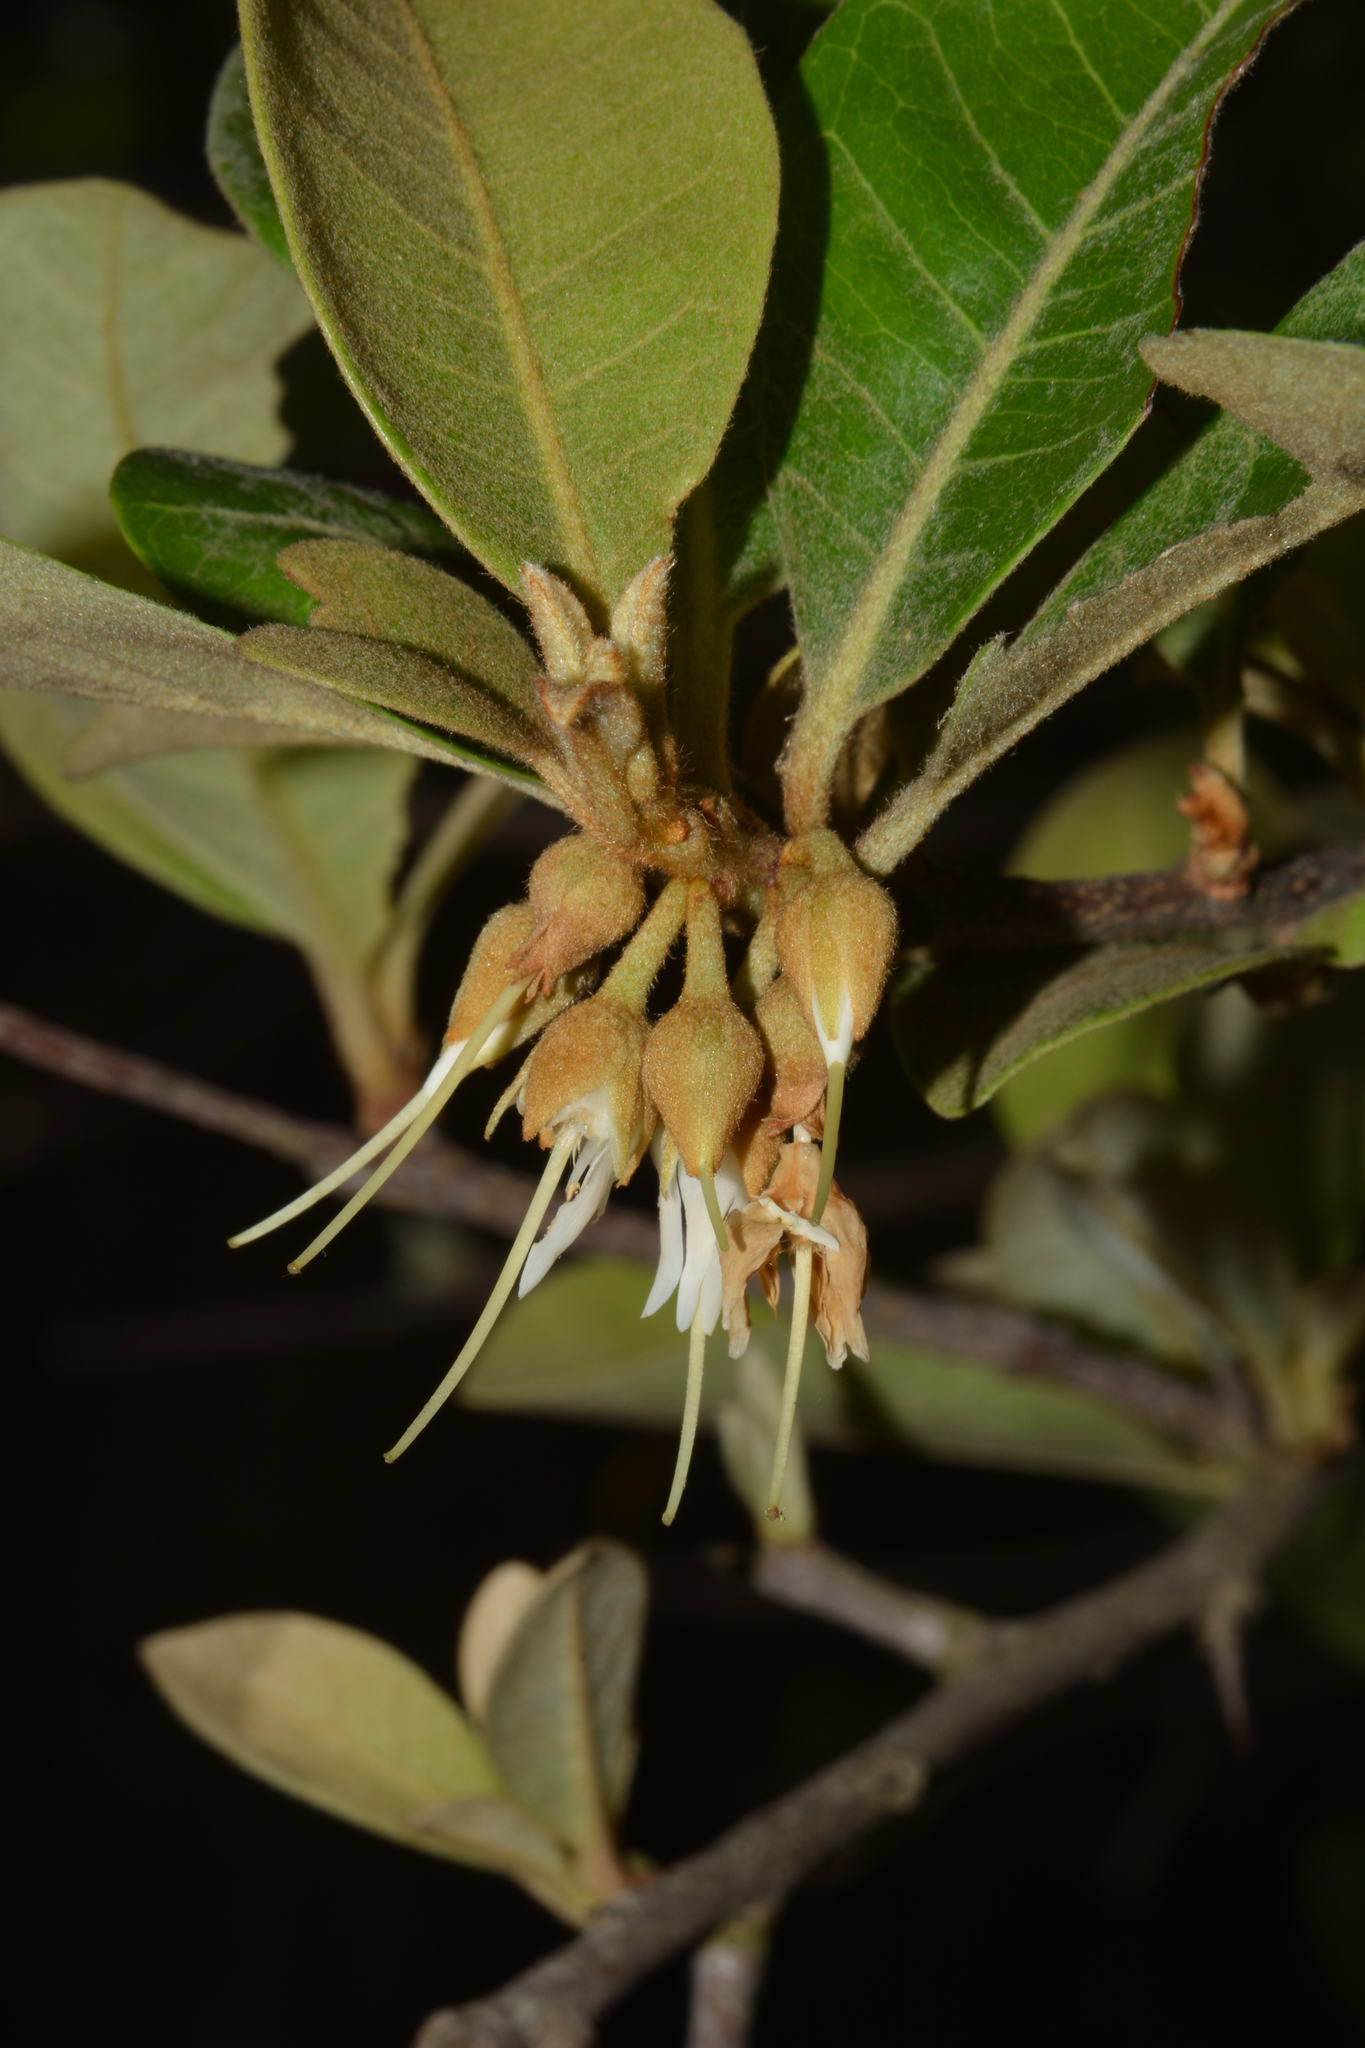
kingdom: Plantae
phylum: Tracheophyta
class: Magnoliopsida
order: Ericales
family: Sapotaceae
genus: Xantolis
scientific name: Xantolis tomentosa
